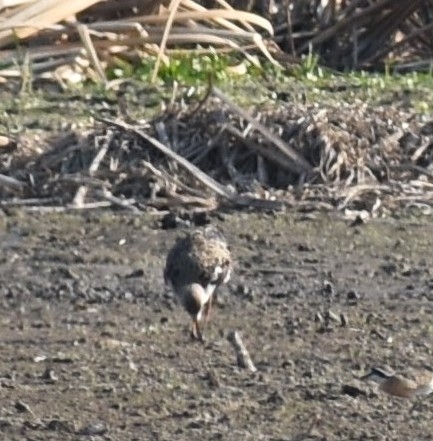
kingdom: Animalia
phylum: Chordata
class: Aves
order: Charadriiformes
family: Scolopacidae
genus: Calidris
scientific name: Calidris pugnax
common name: Ruff
